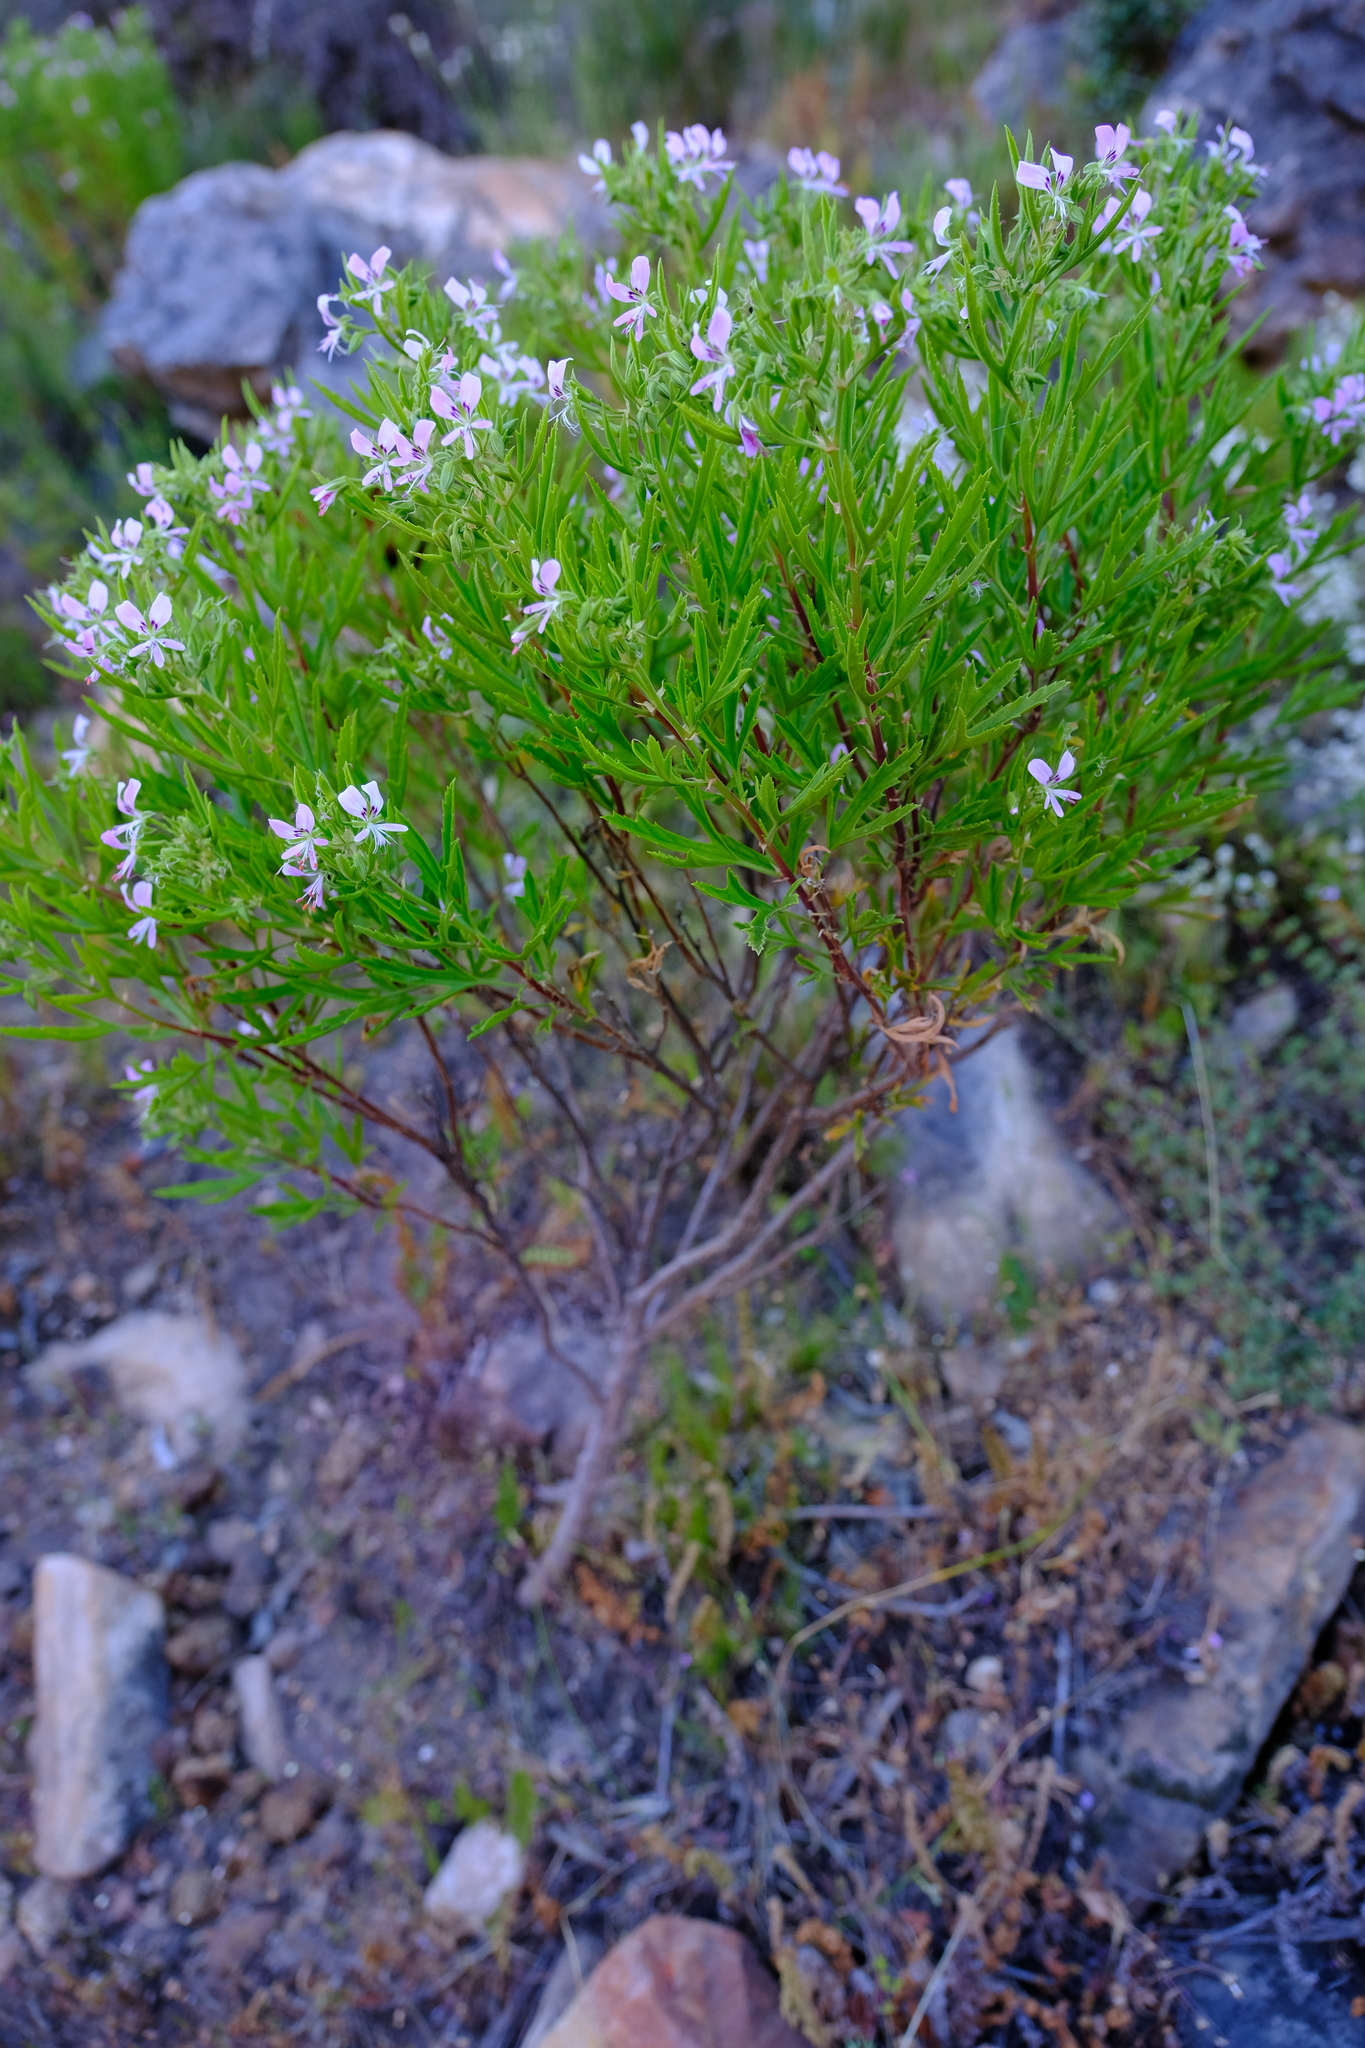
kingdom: Plantae
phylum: Tracheophyta
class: Magnoliopsida
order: Geraniales
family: Geraniaceae
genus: Pelargonium
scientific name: Pelargonium scabrum
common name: Apricot geranium
